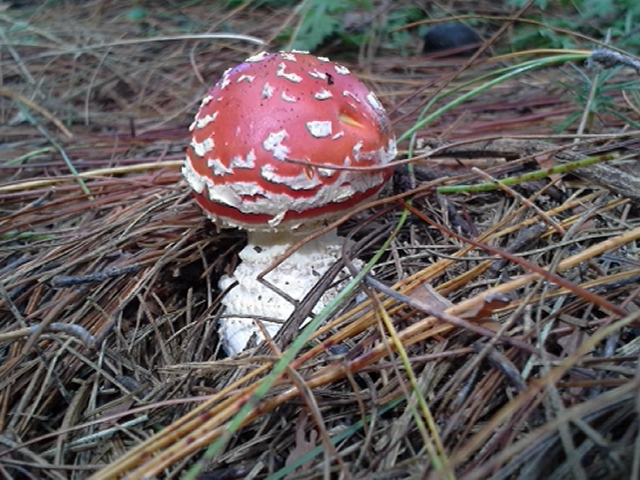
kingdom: Fungi
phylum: Basidiomycota
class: Agaricomycetes
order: Agaricales
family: Amanitaceae
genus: Amanita
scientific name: Amanita muscaria
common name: Fly agaric
